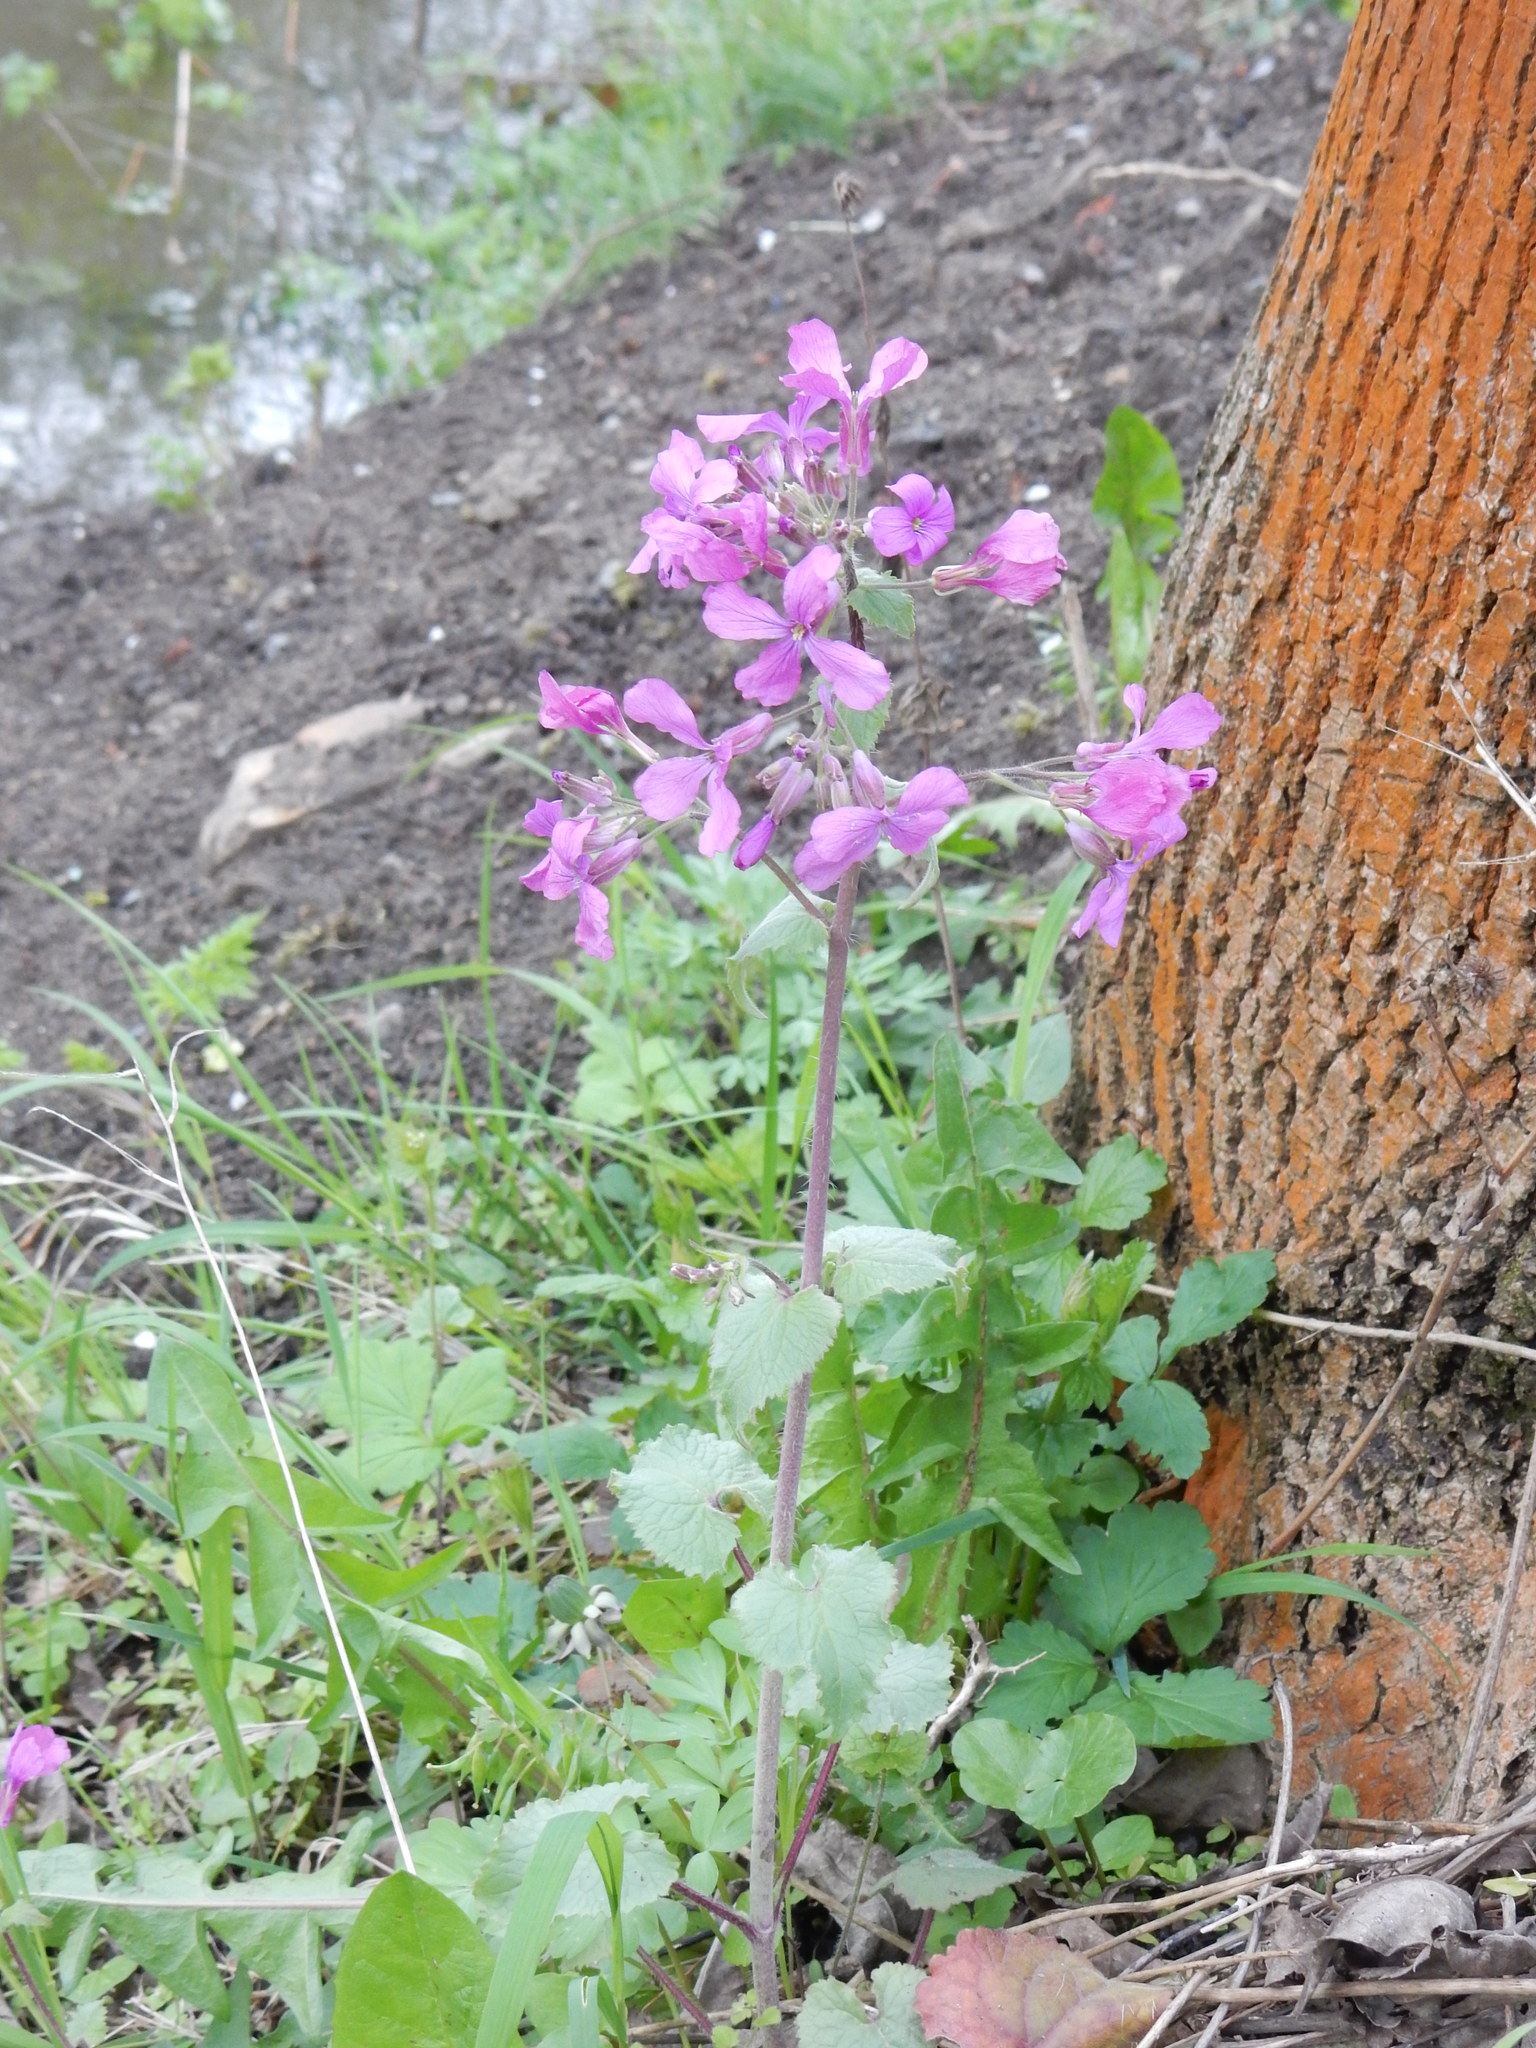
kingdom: Plantae
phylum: Tracheophyta
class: Magnoliopsida
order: Brassicales
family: Brassicaceae
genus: Lunaria
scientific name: Lunaria annua
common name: Honesty
